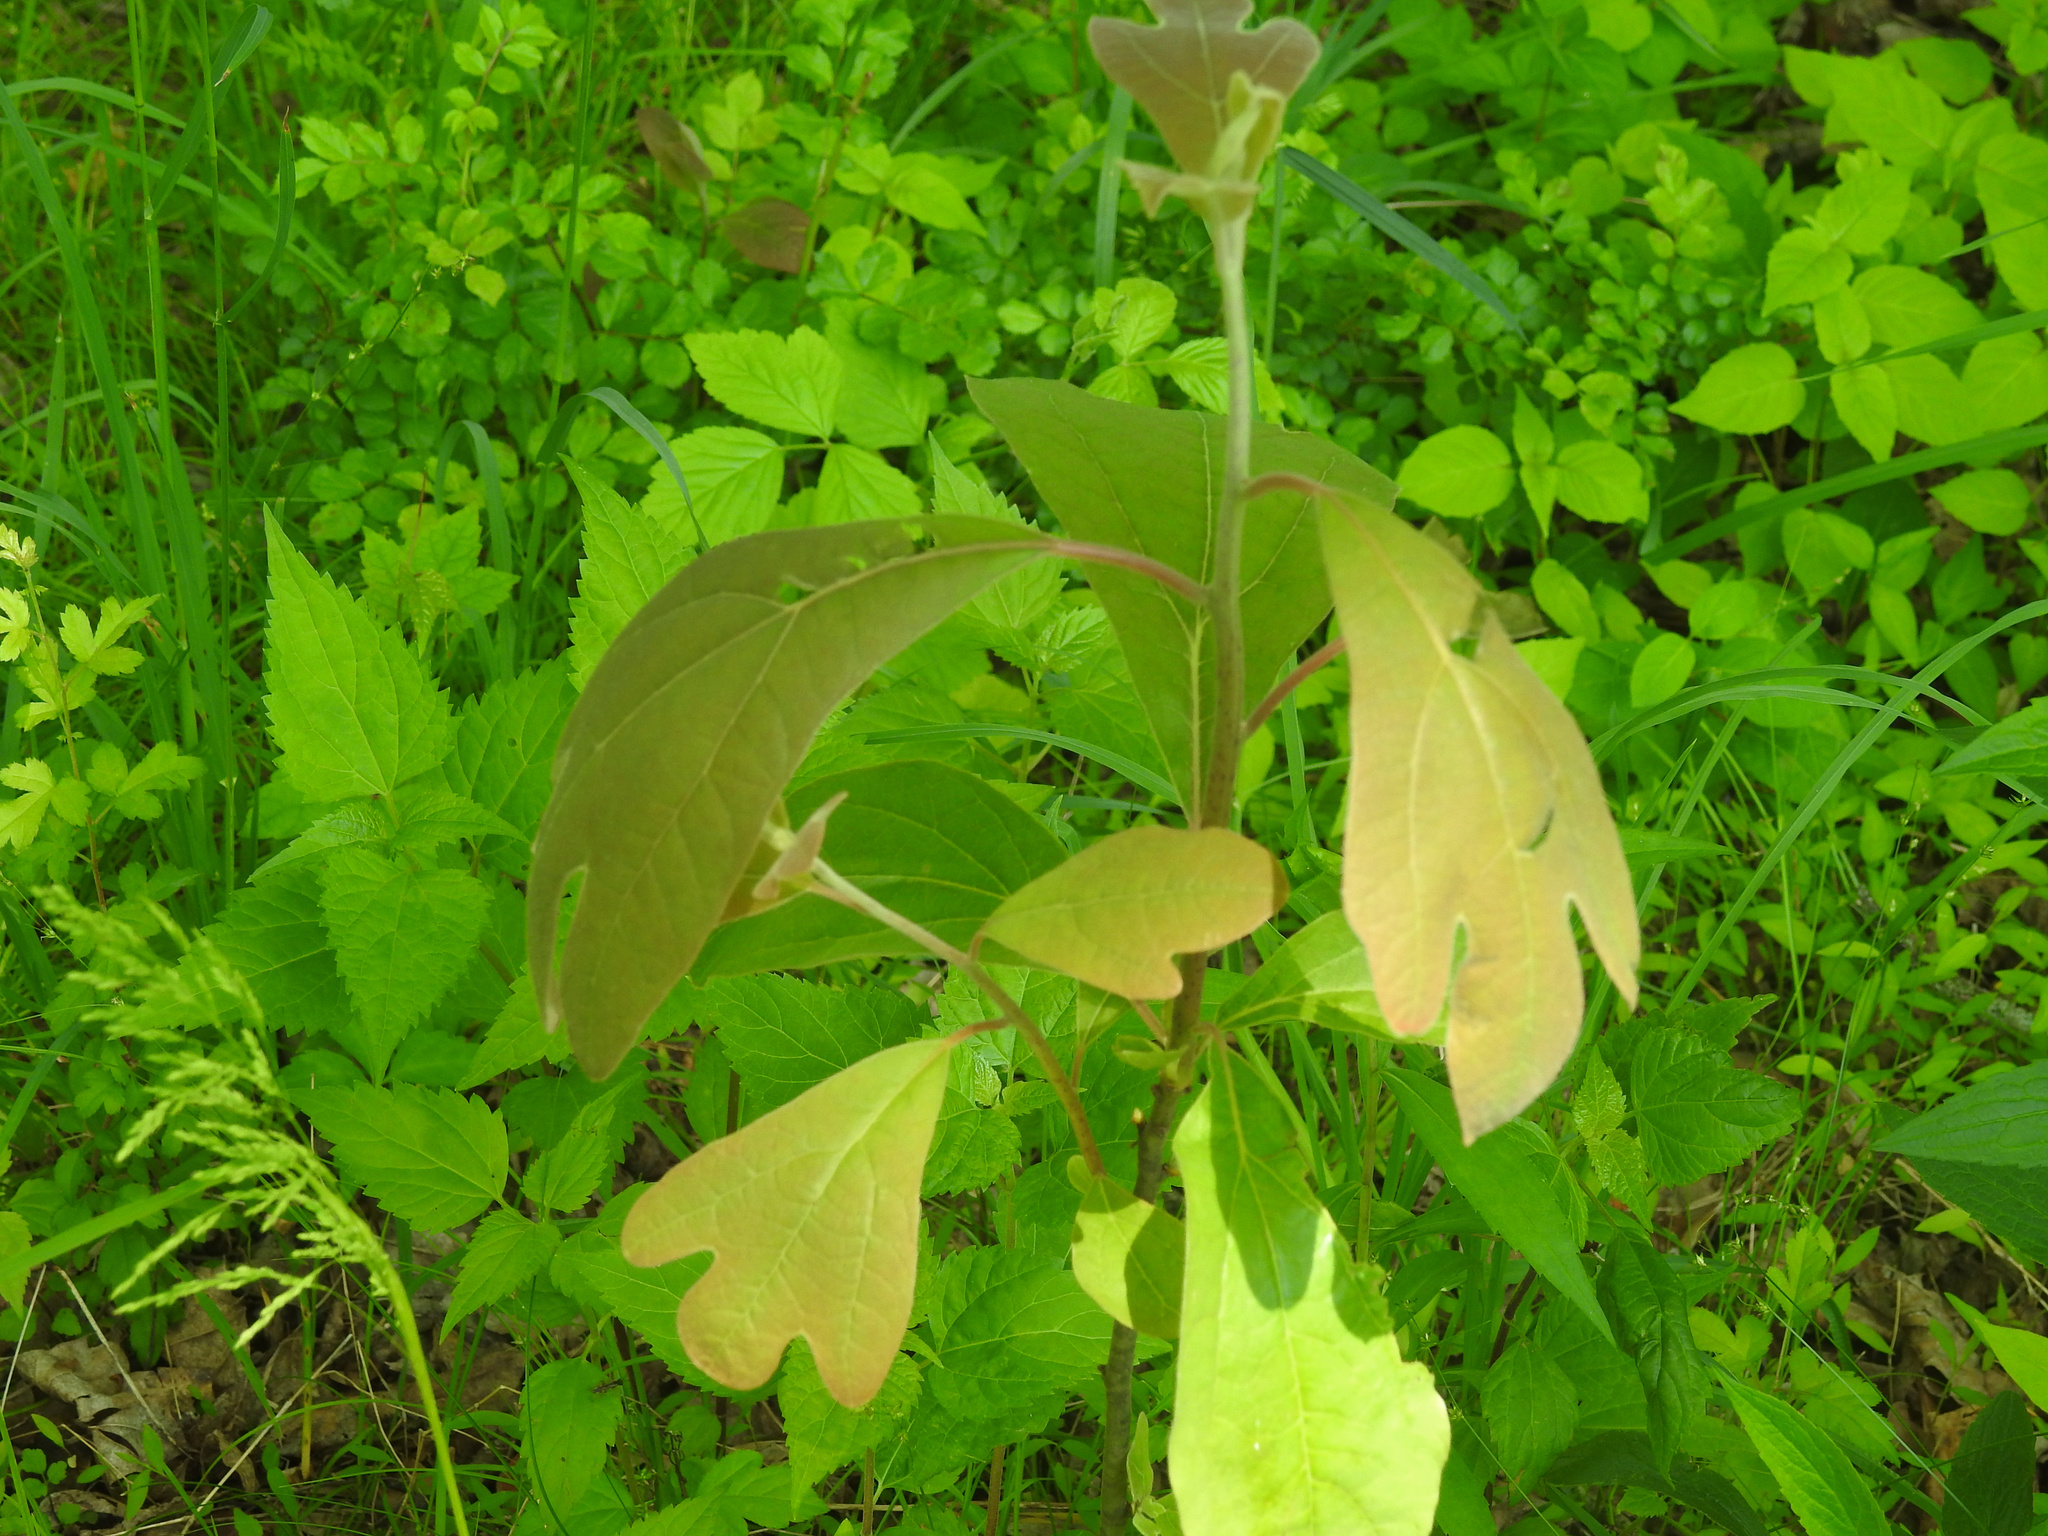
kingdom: Plantae
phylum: Tracheophyta
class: Magnoliopsida
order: Laurales
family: Lauraceae
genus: Sassafras
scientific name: Sassafras albidum
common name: Sassafras
